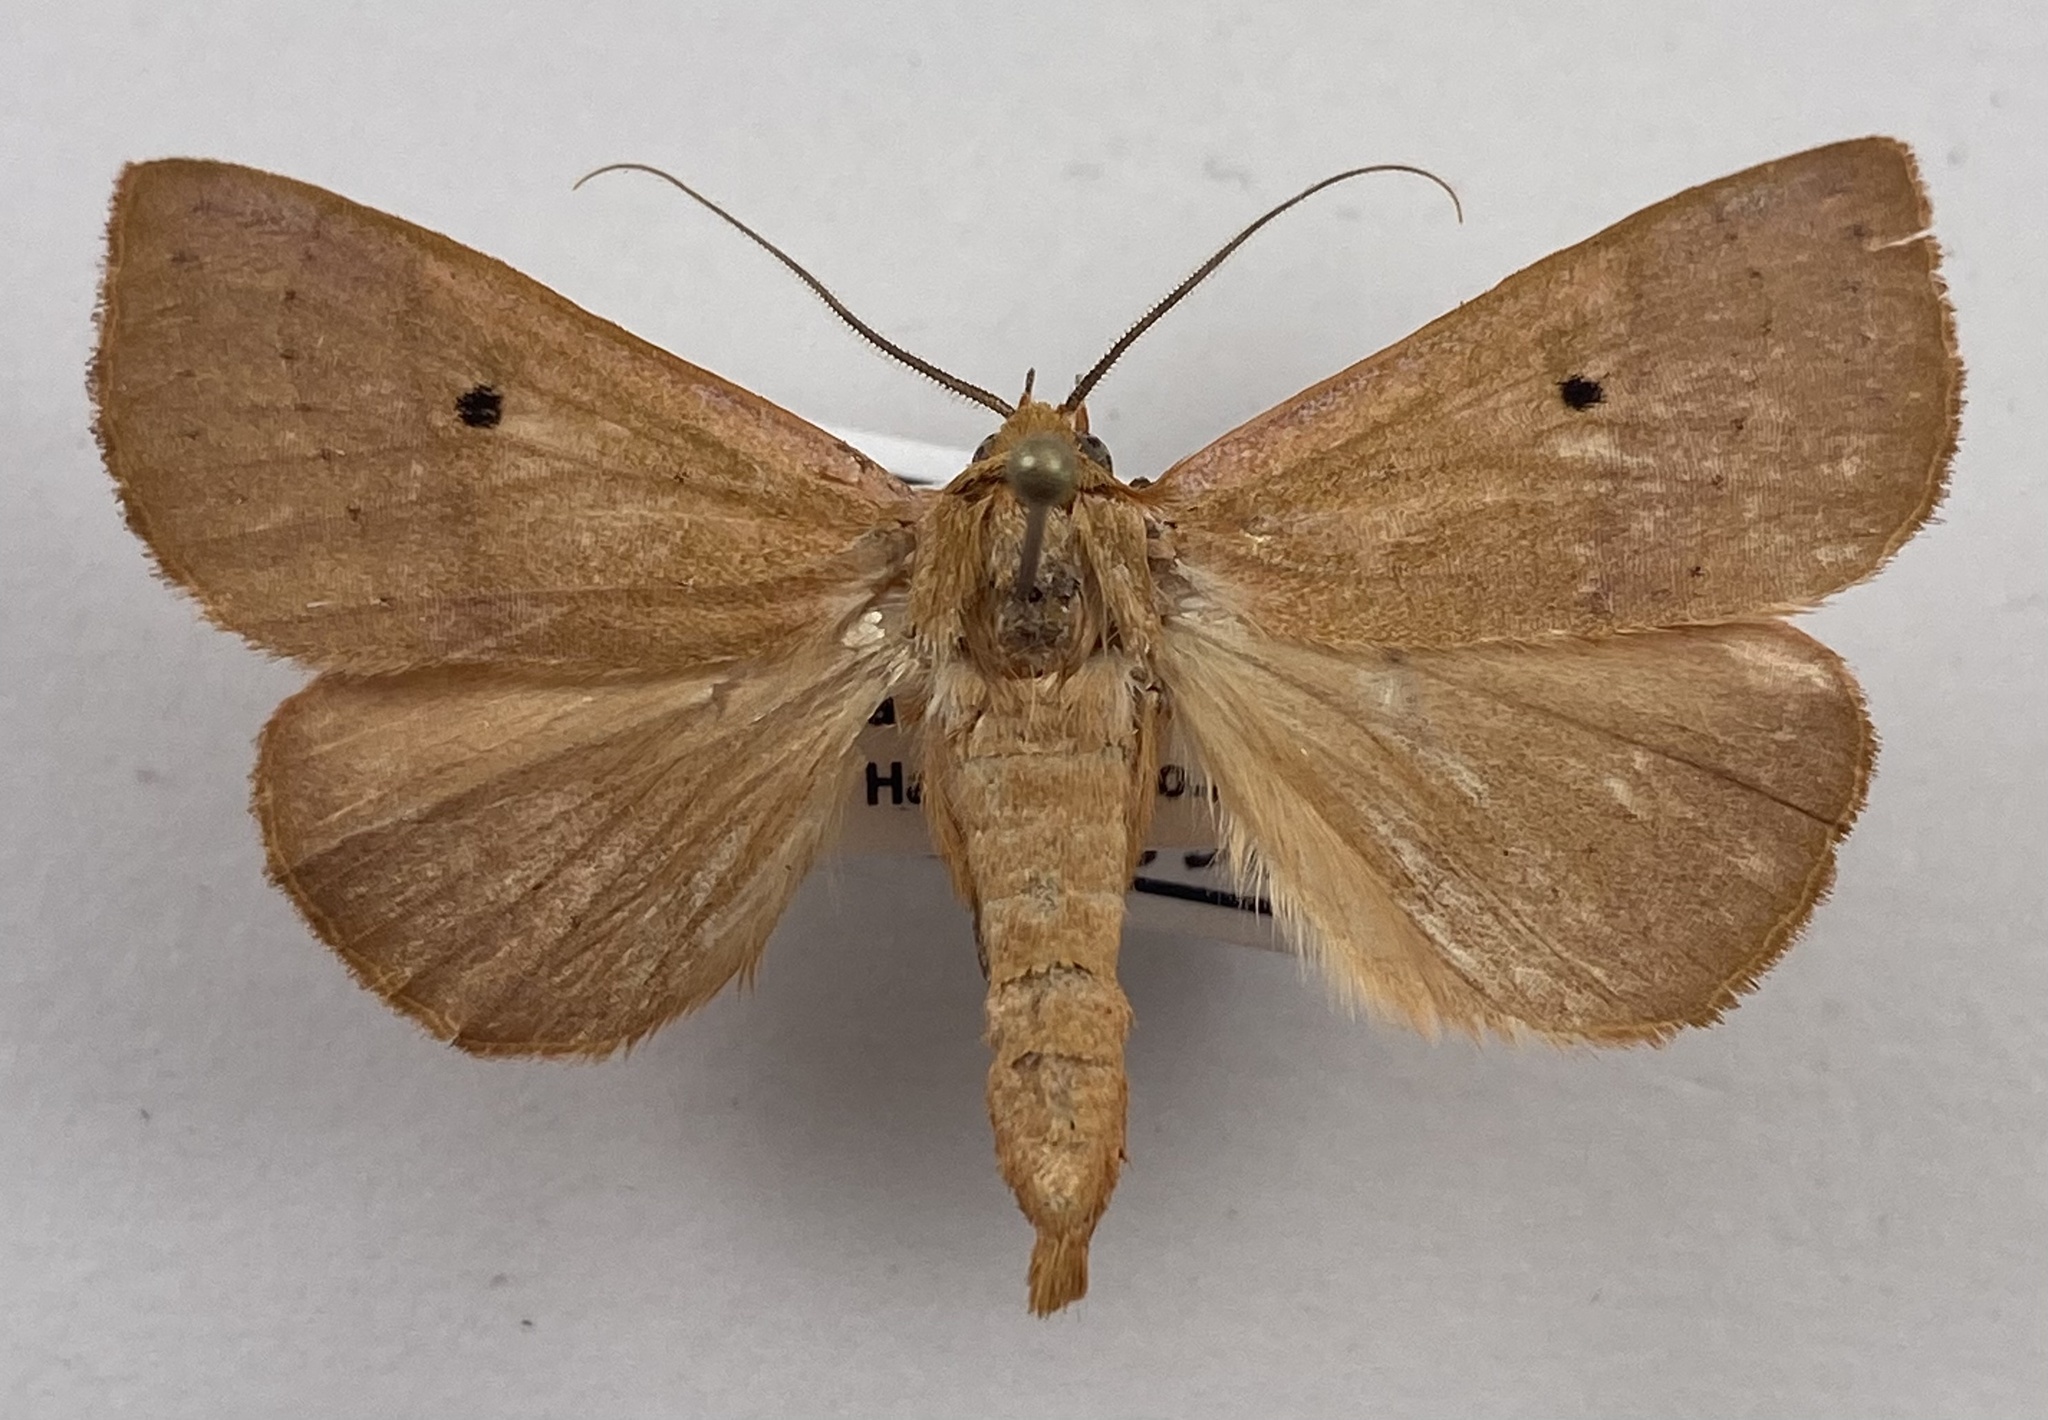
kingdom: Animalia
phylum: Arthropoda
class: Insecta
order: Lepidoptera
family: Erebidae
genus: Panopoda
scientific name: Panopoda repanda
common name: Orange panopoda
